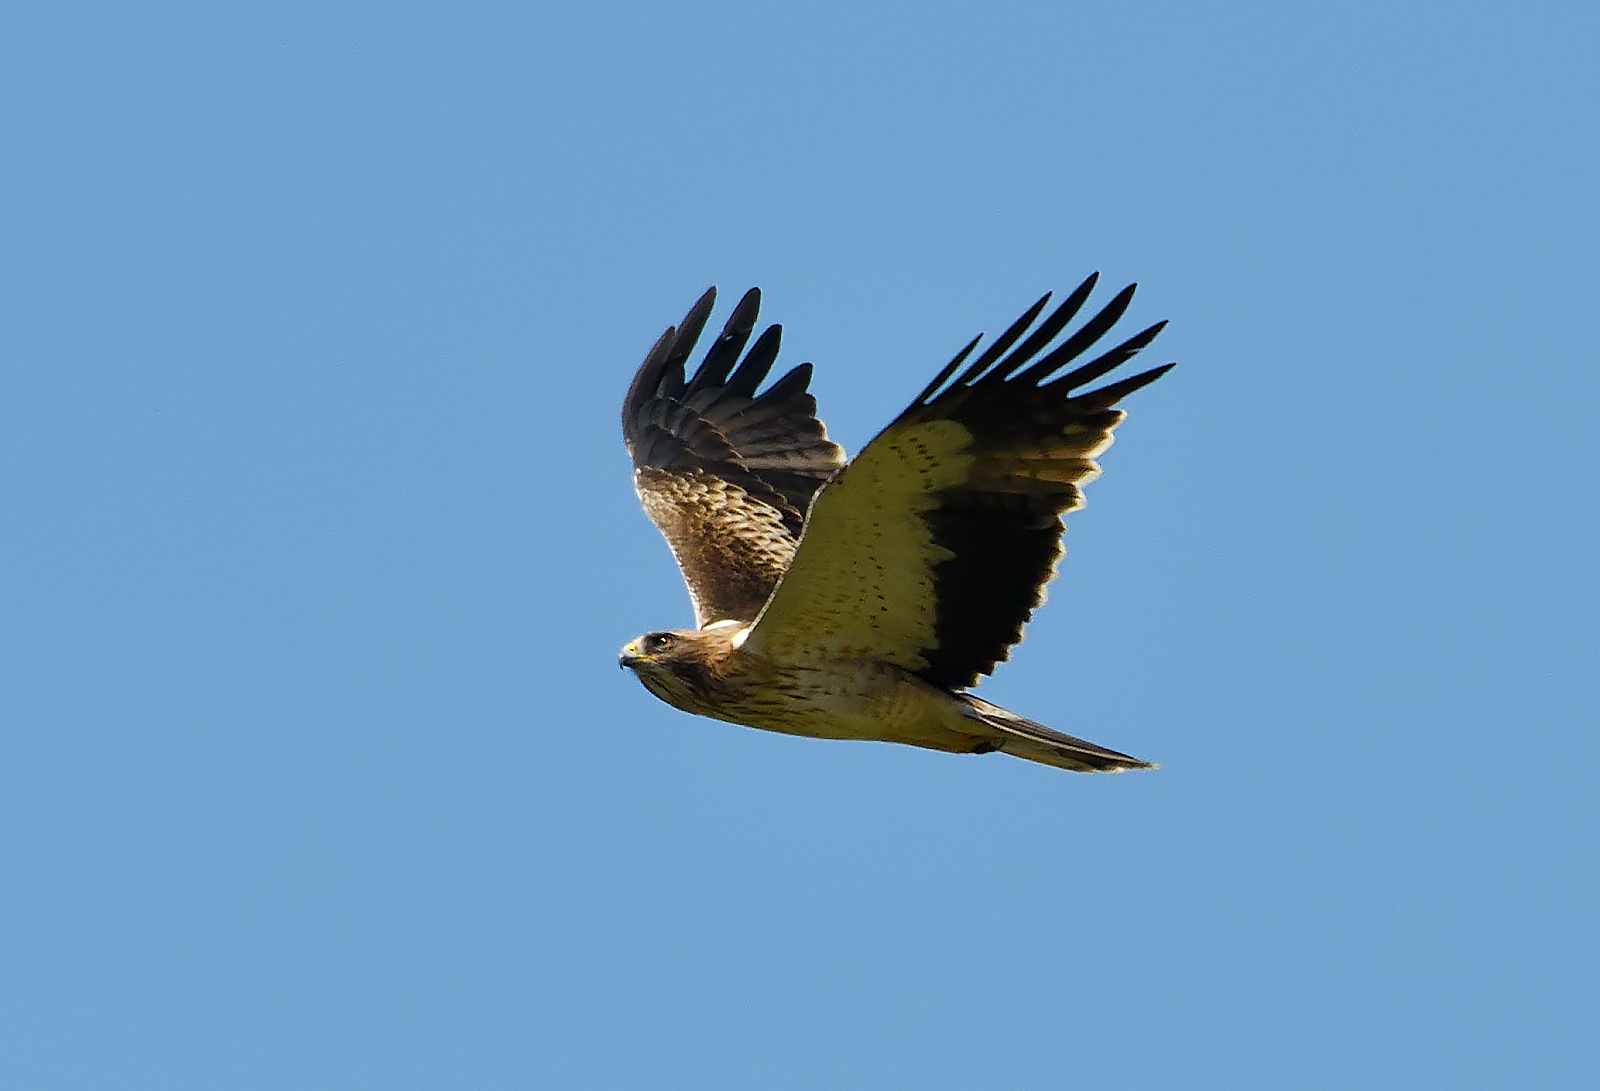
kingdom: Animalia
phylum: Chordata
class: Aves
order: Accipitriformes
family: Accipitridae
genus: Hieraaetus
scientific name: Hieraaetus pennatus
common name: Booted eagle
